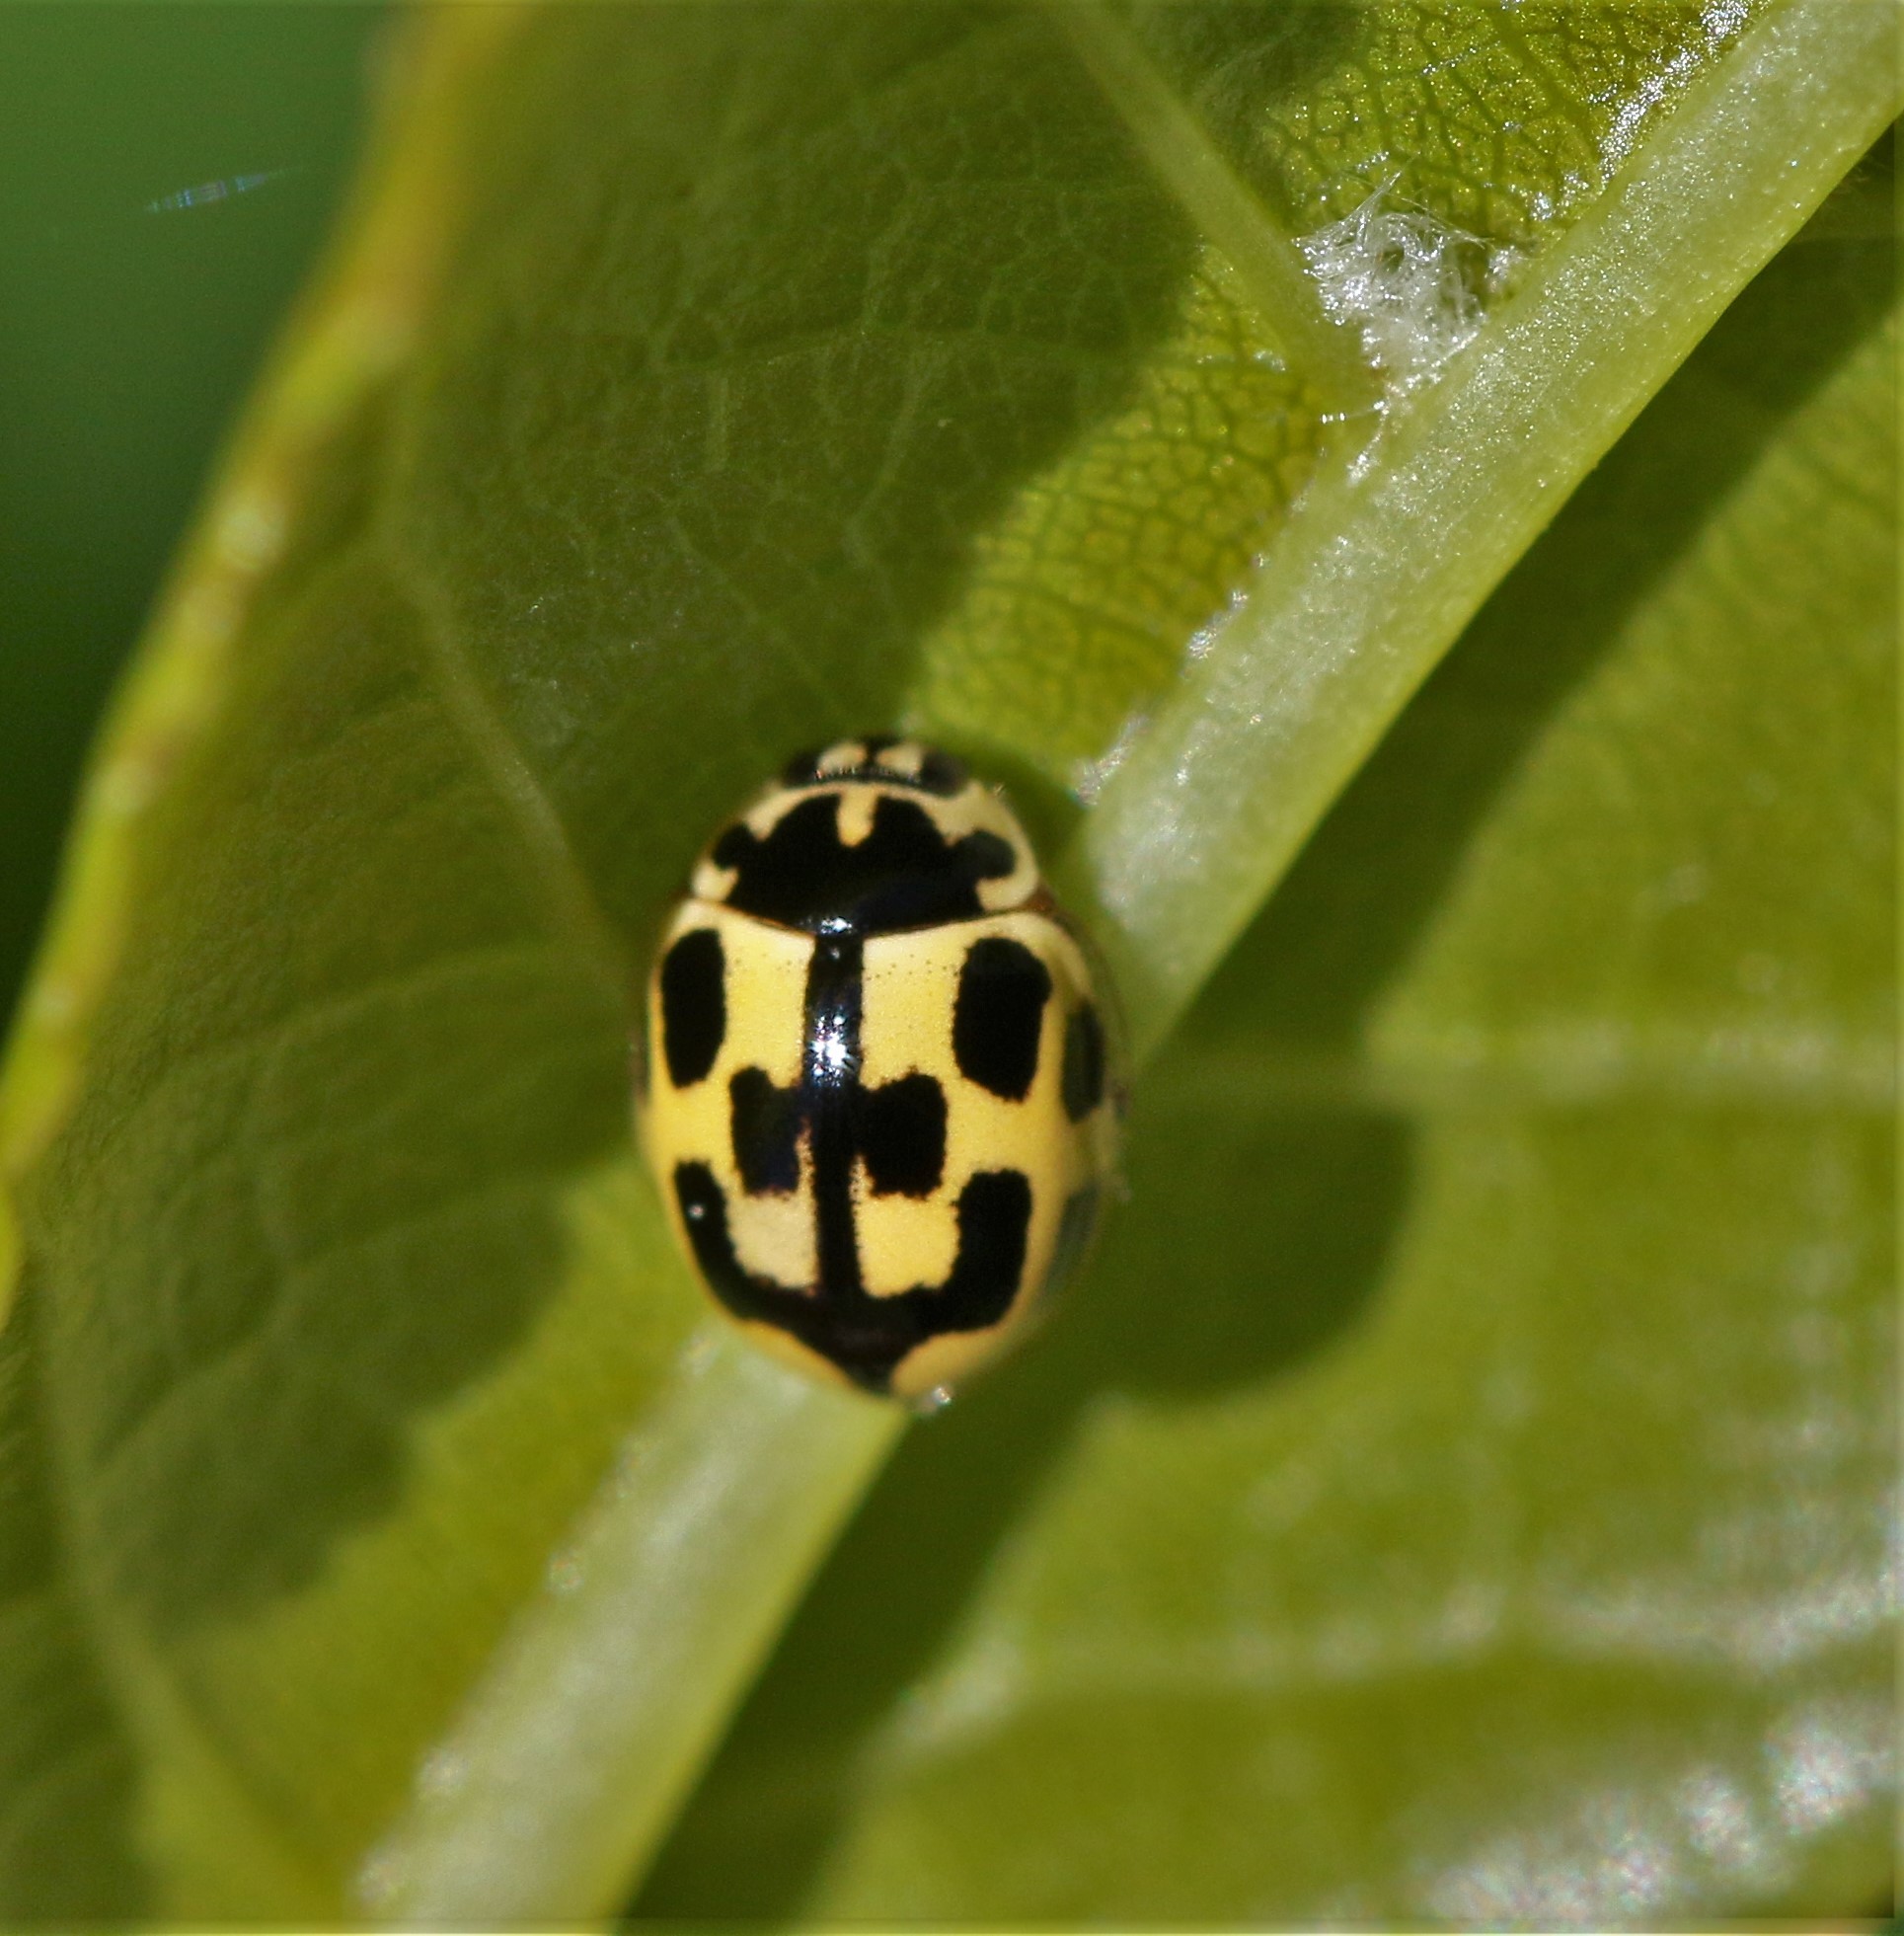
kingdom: Animalia
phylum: Arthropoda
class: Insecta
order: Coleoptera
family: Coccinellidae
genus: Propylaea
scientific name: Propylaea quatuordecimpunctata
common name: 14-spotted ladybird beetle
